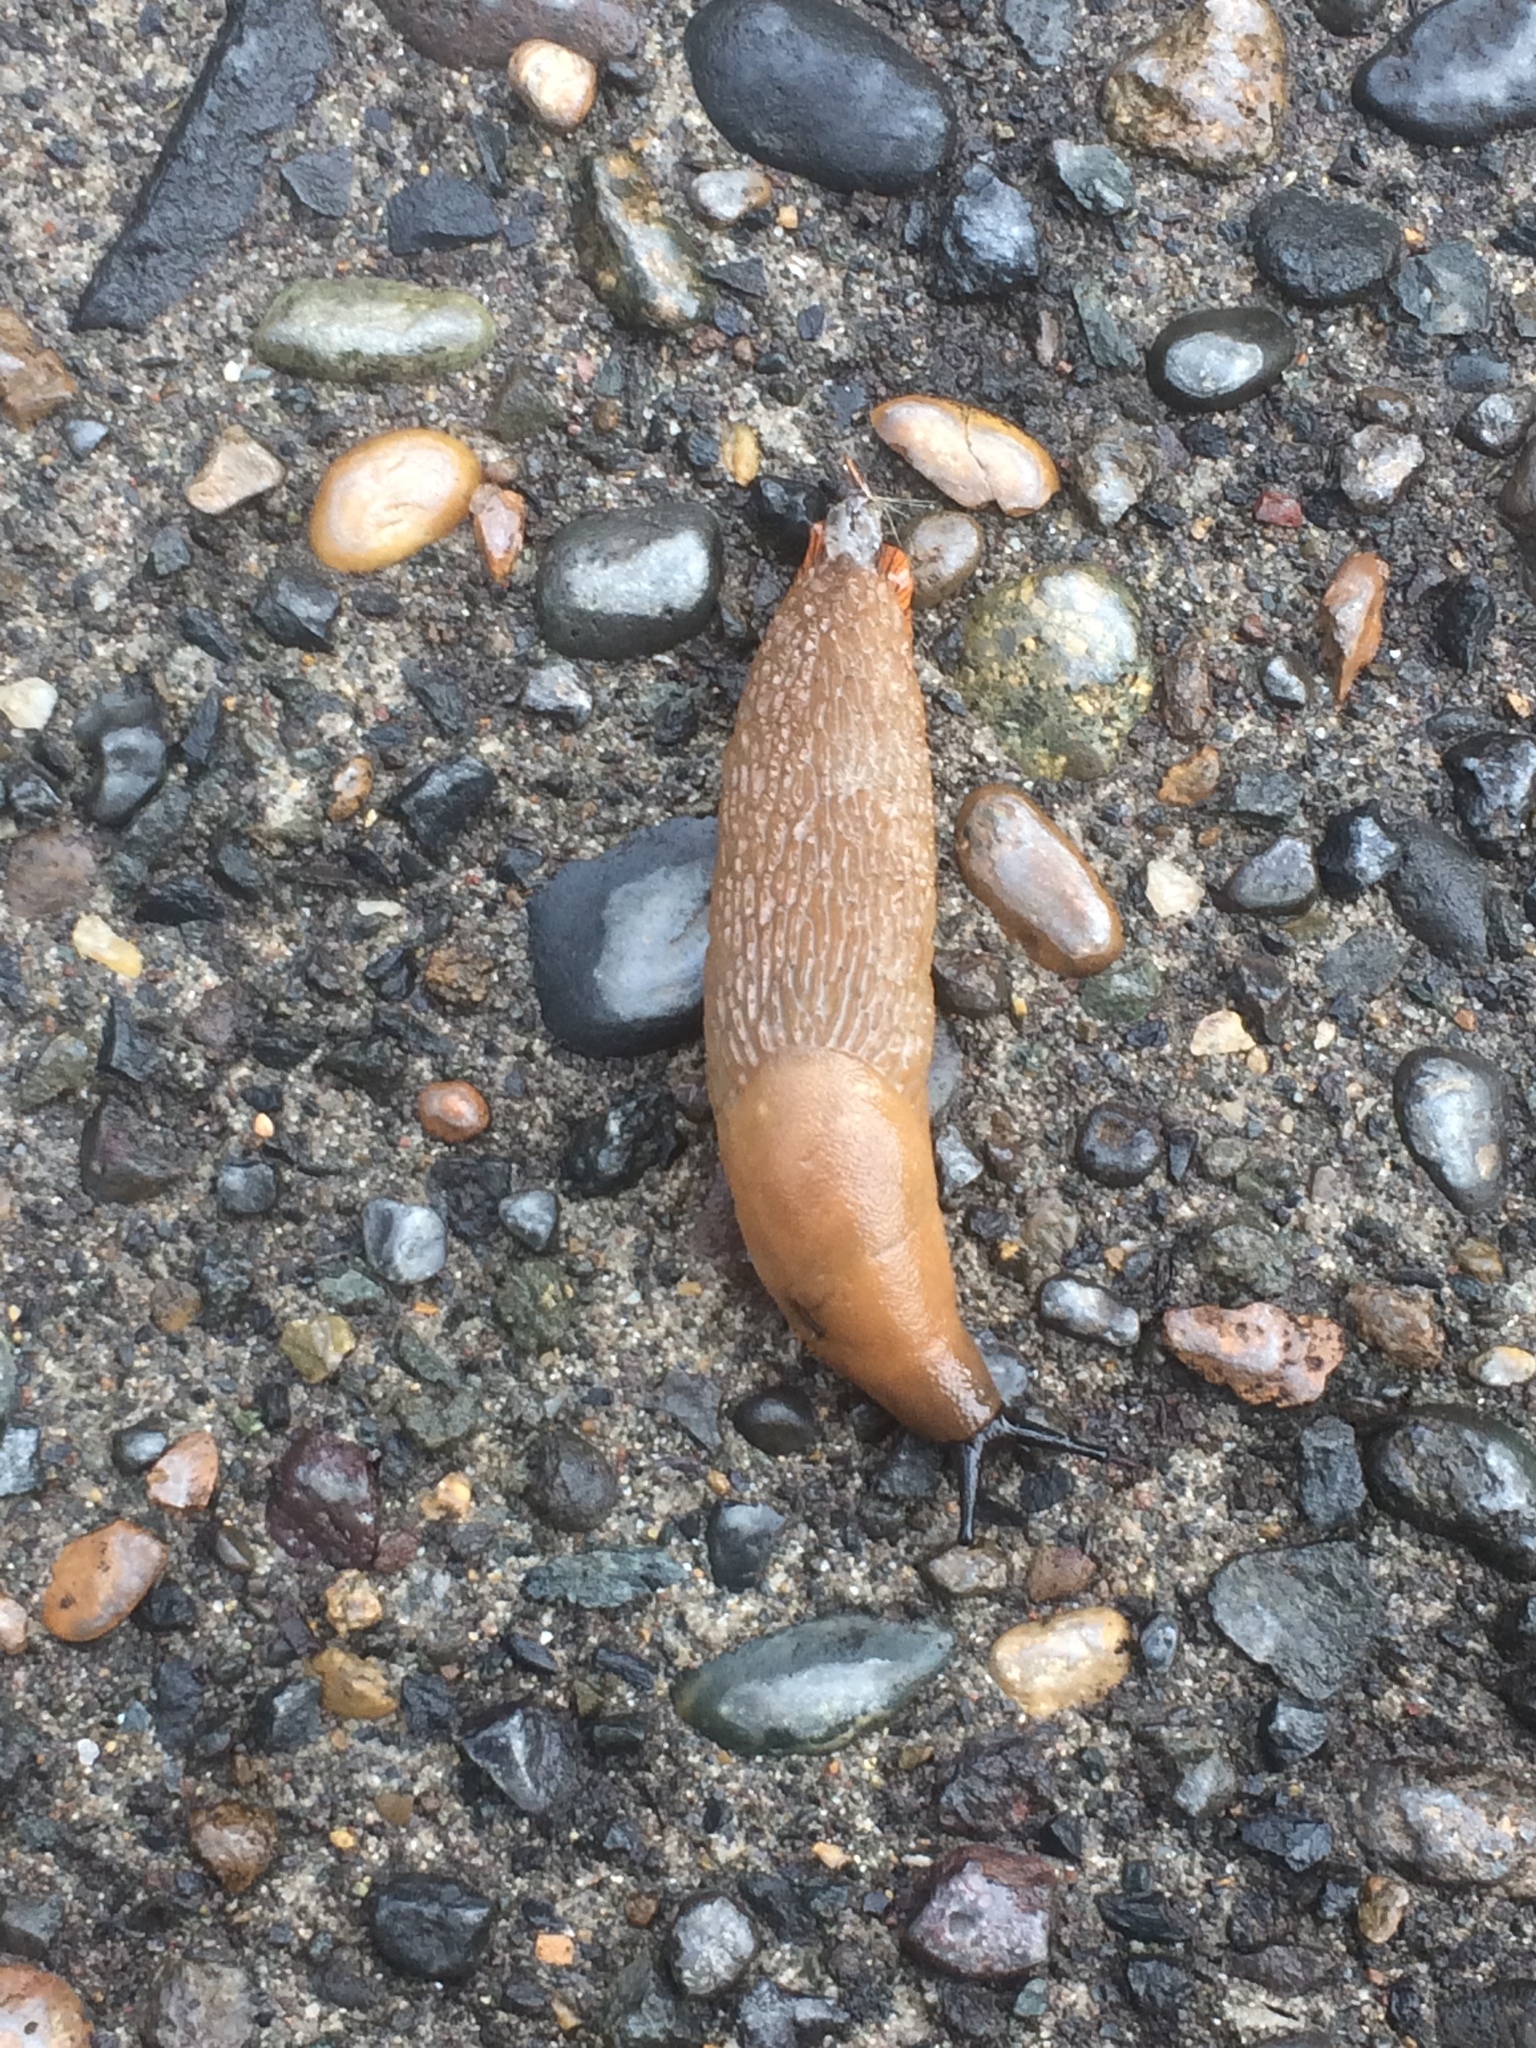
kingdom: Animalia
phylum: Mollusca
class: Gastropoda
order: Stylommatophora
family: Arionidae
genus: Arion
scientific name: Arion rufus
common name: Chocolate arion
